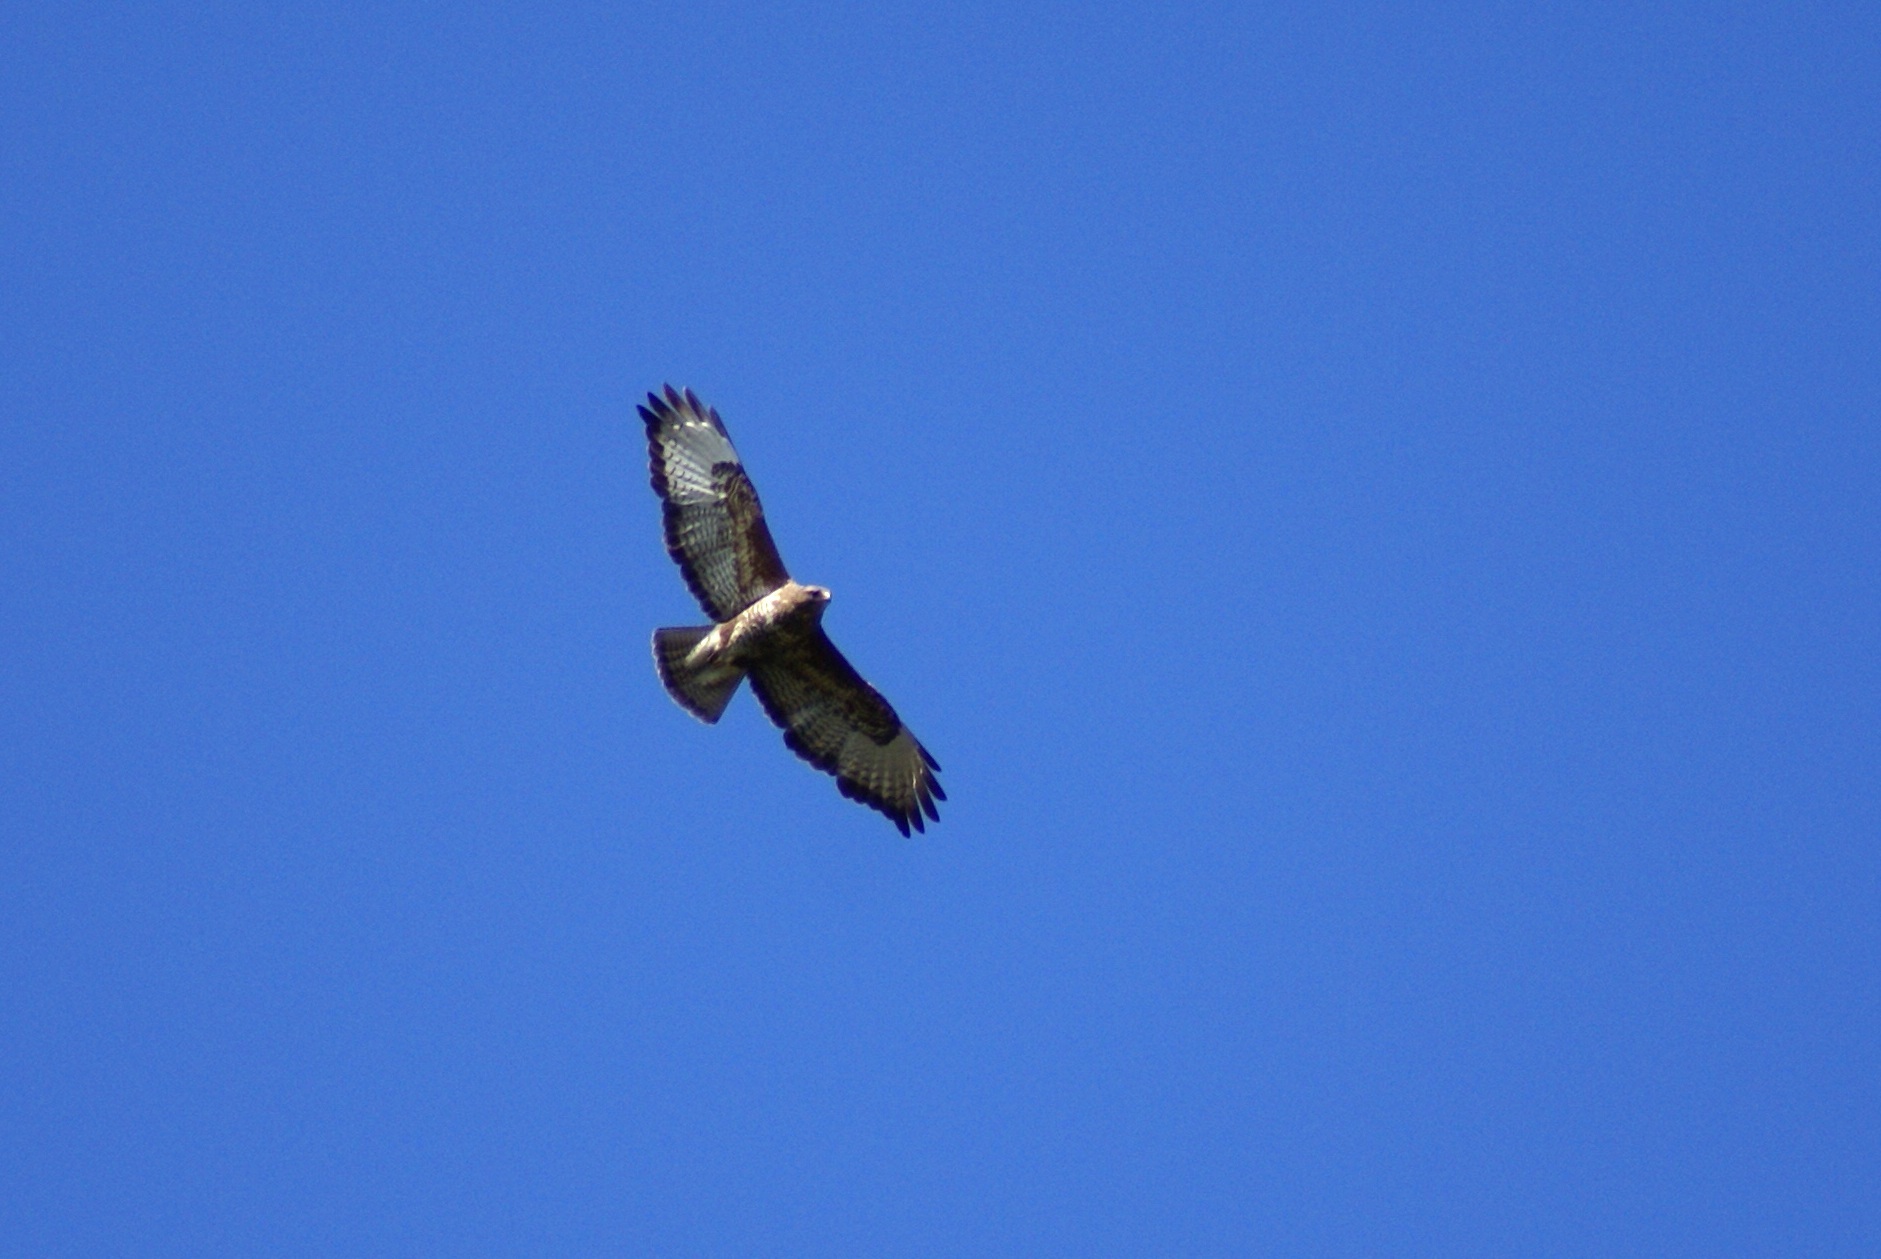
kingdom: Animalia
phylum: Chordata
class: Aves
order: Accipitriformes
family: Accipitridae
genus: Buteo
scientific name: Buteo buteo
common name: Common buzzard
